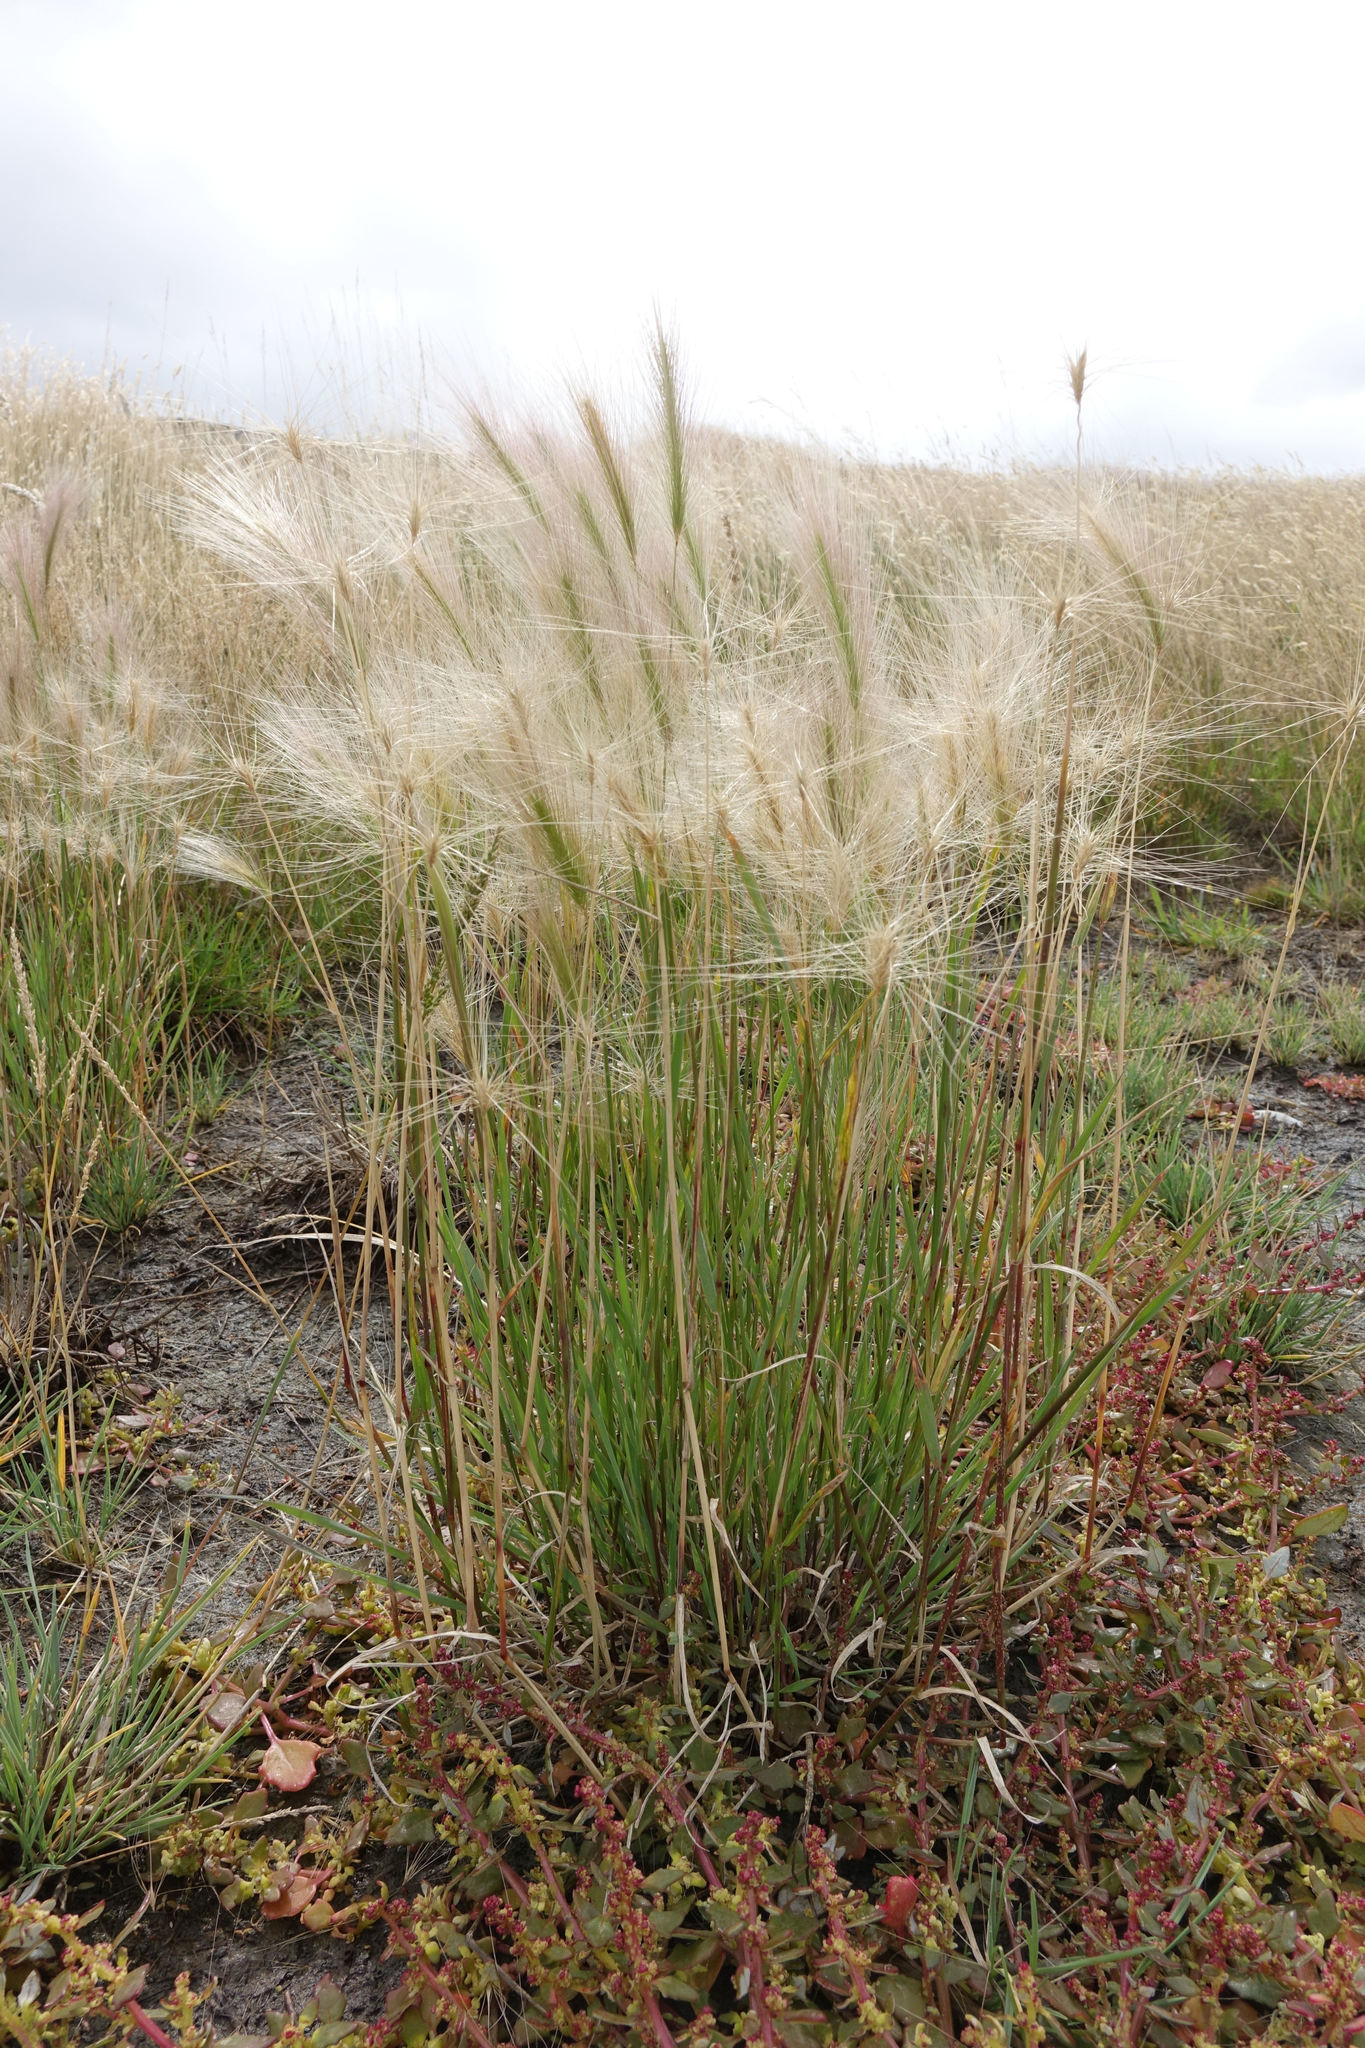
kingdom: Plantae
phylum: Tracheophyta
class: Liliopsida
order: Poales
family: Poaceae
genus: Hordeum
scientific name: Hordeum jubatum
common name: Foxtail barley
